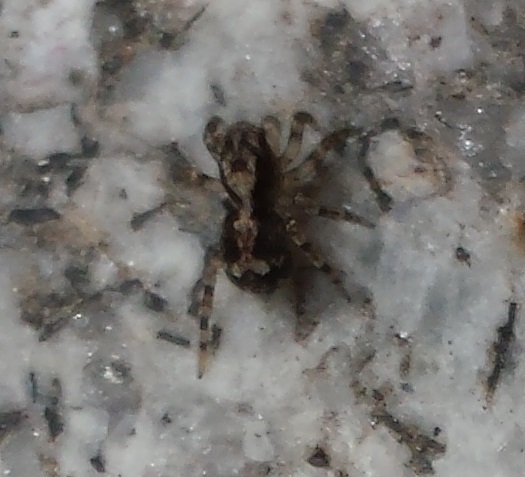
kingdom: Animalia
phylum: Arthropoda
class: Arachnida
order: Araneae
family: Salticidae
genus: Naphrys
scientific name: Naphrys pulex
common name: Flea jumping spider
